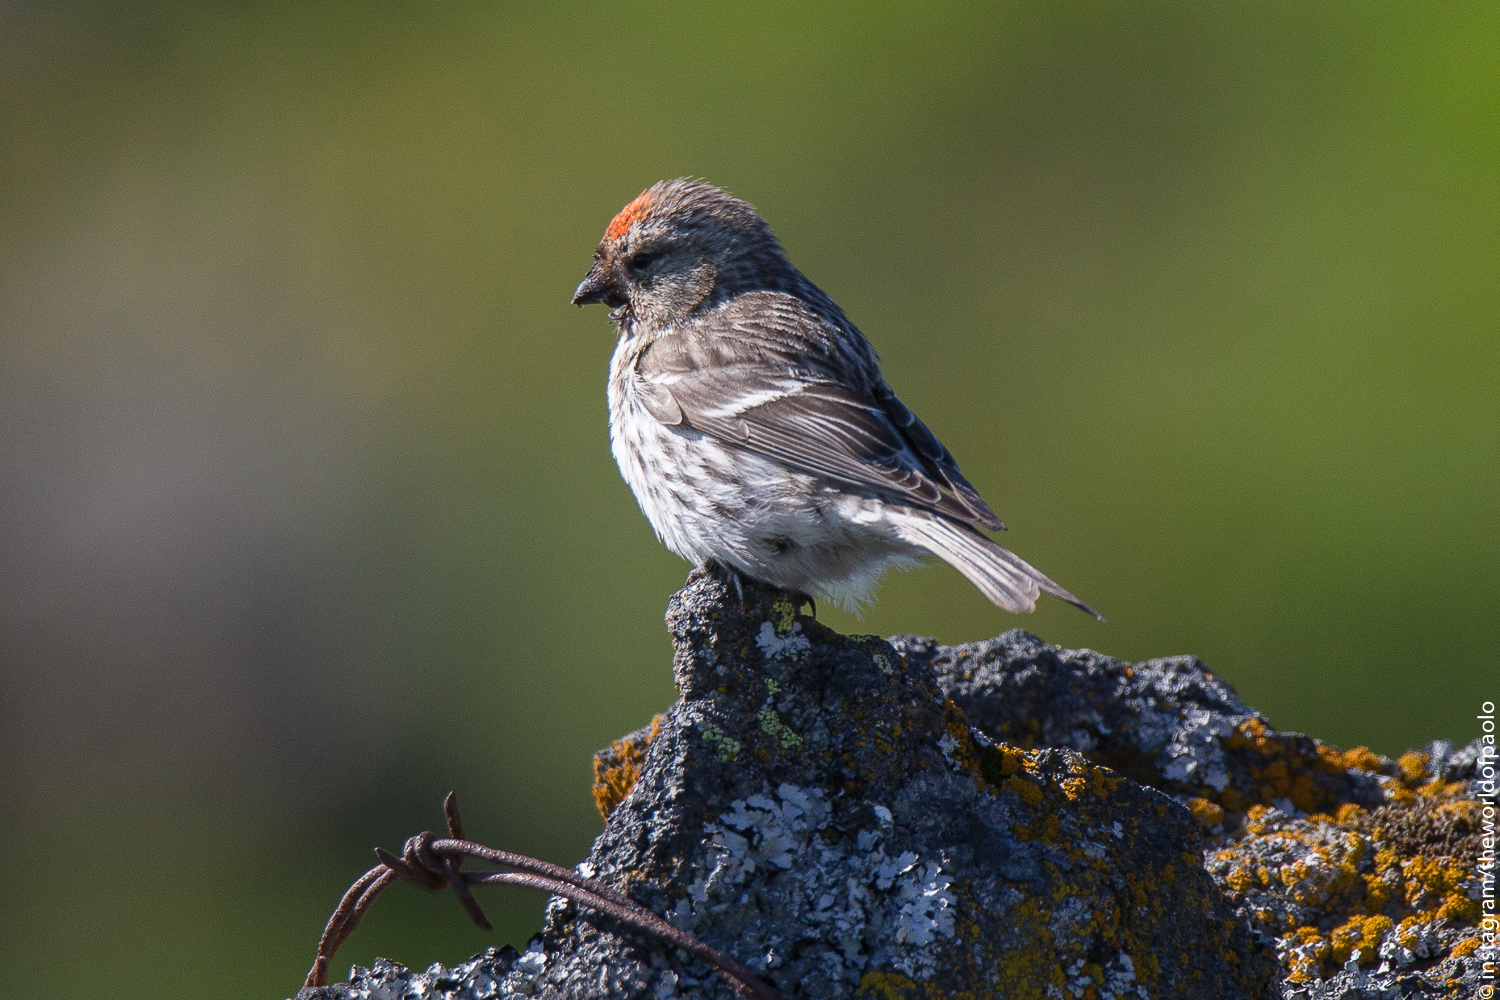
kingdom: Animalia
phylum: Chordata
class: Aves
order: Passeriformes
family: Fringillidae
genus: Acanthis
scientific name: Acanthis flammea
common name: Common redpoll
